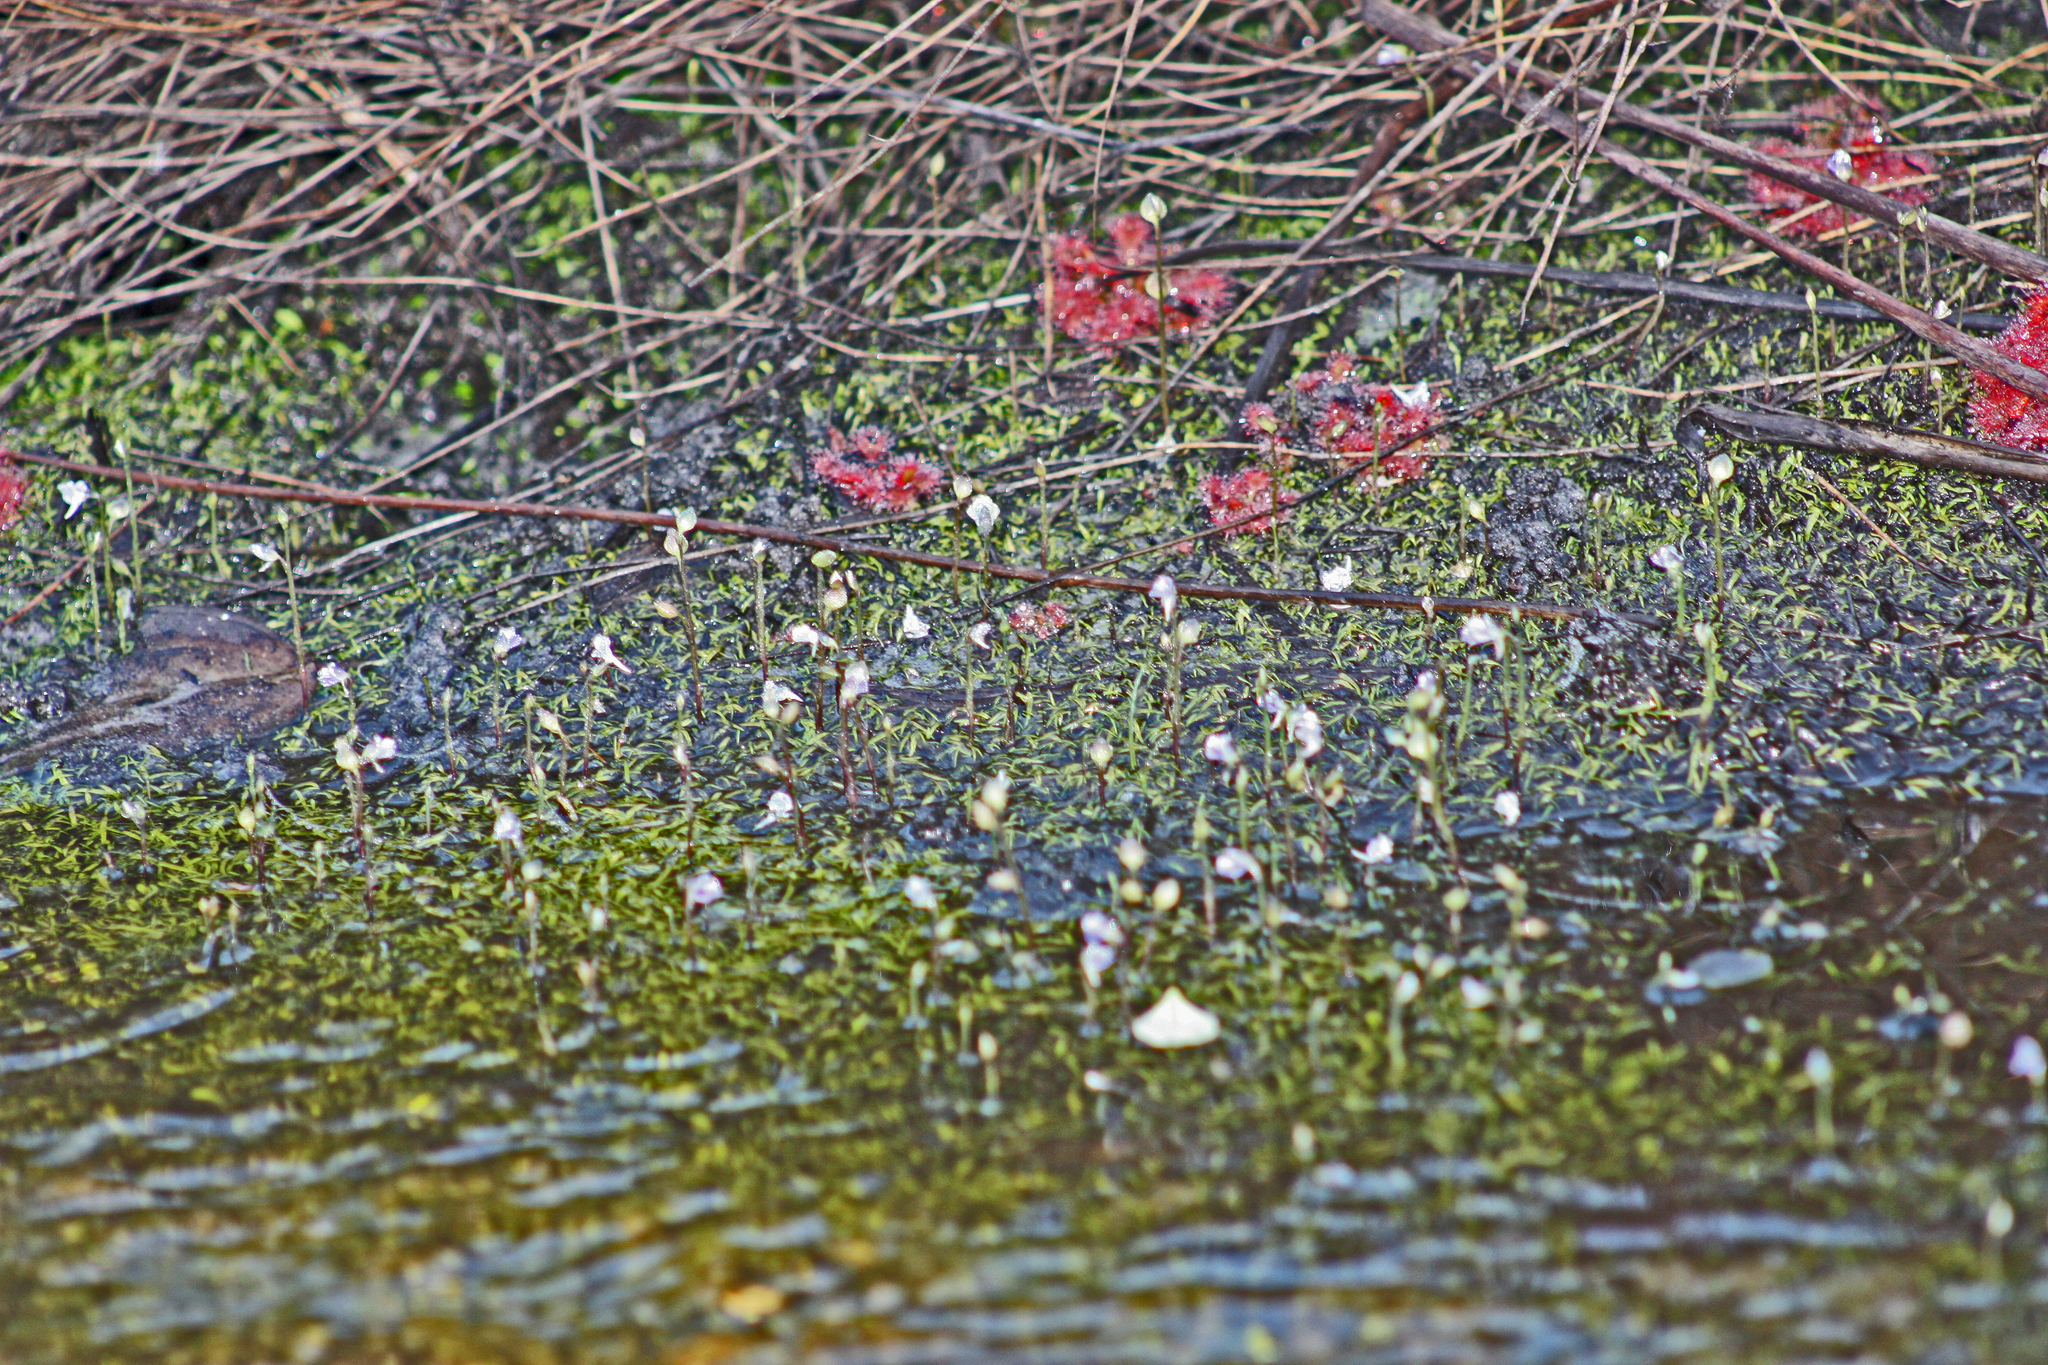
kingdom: Plantae
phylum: Tracheophyta
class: Magnoliopsida
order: Lamiales
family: Lentibulariaceae
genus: Utricularia
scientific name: Utricularia uliginosa
